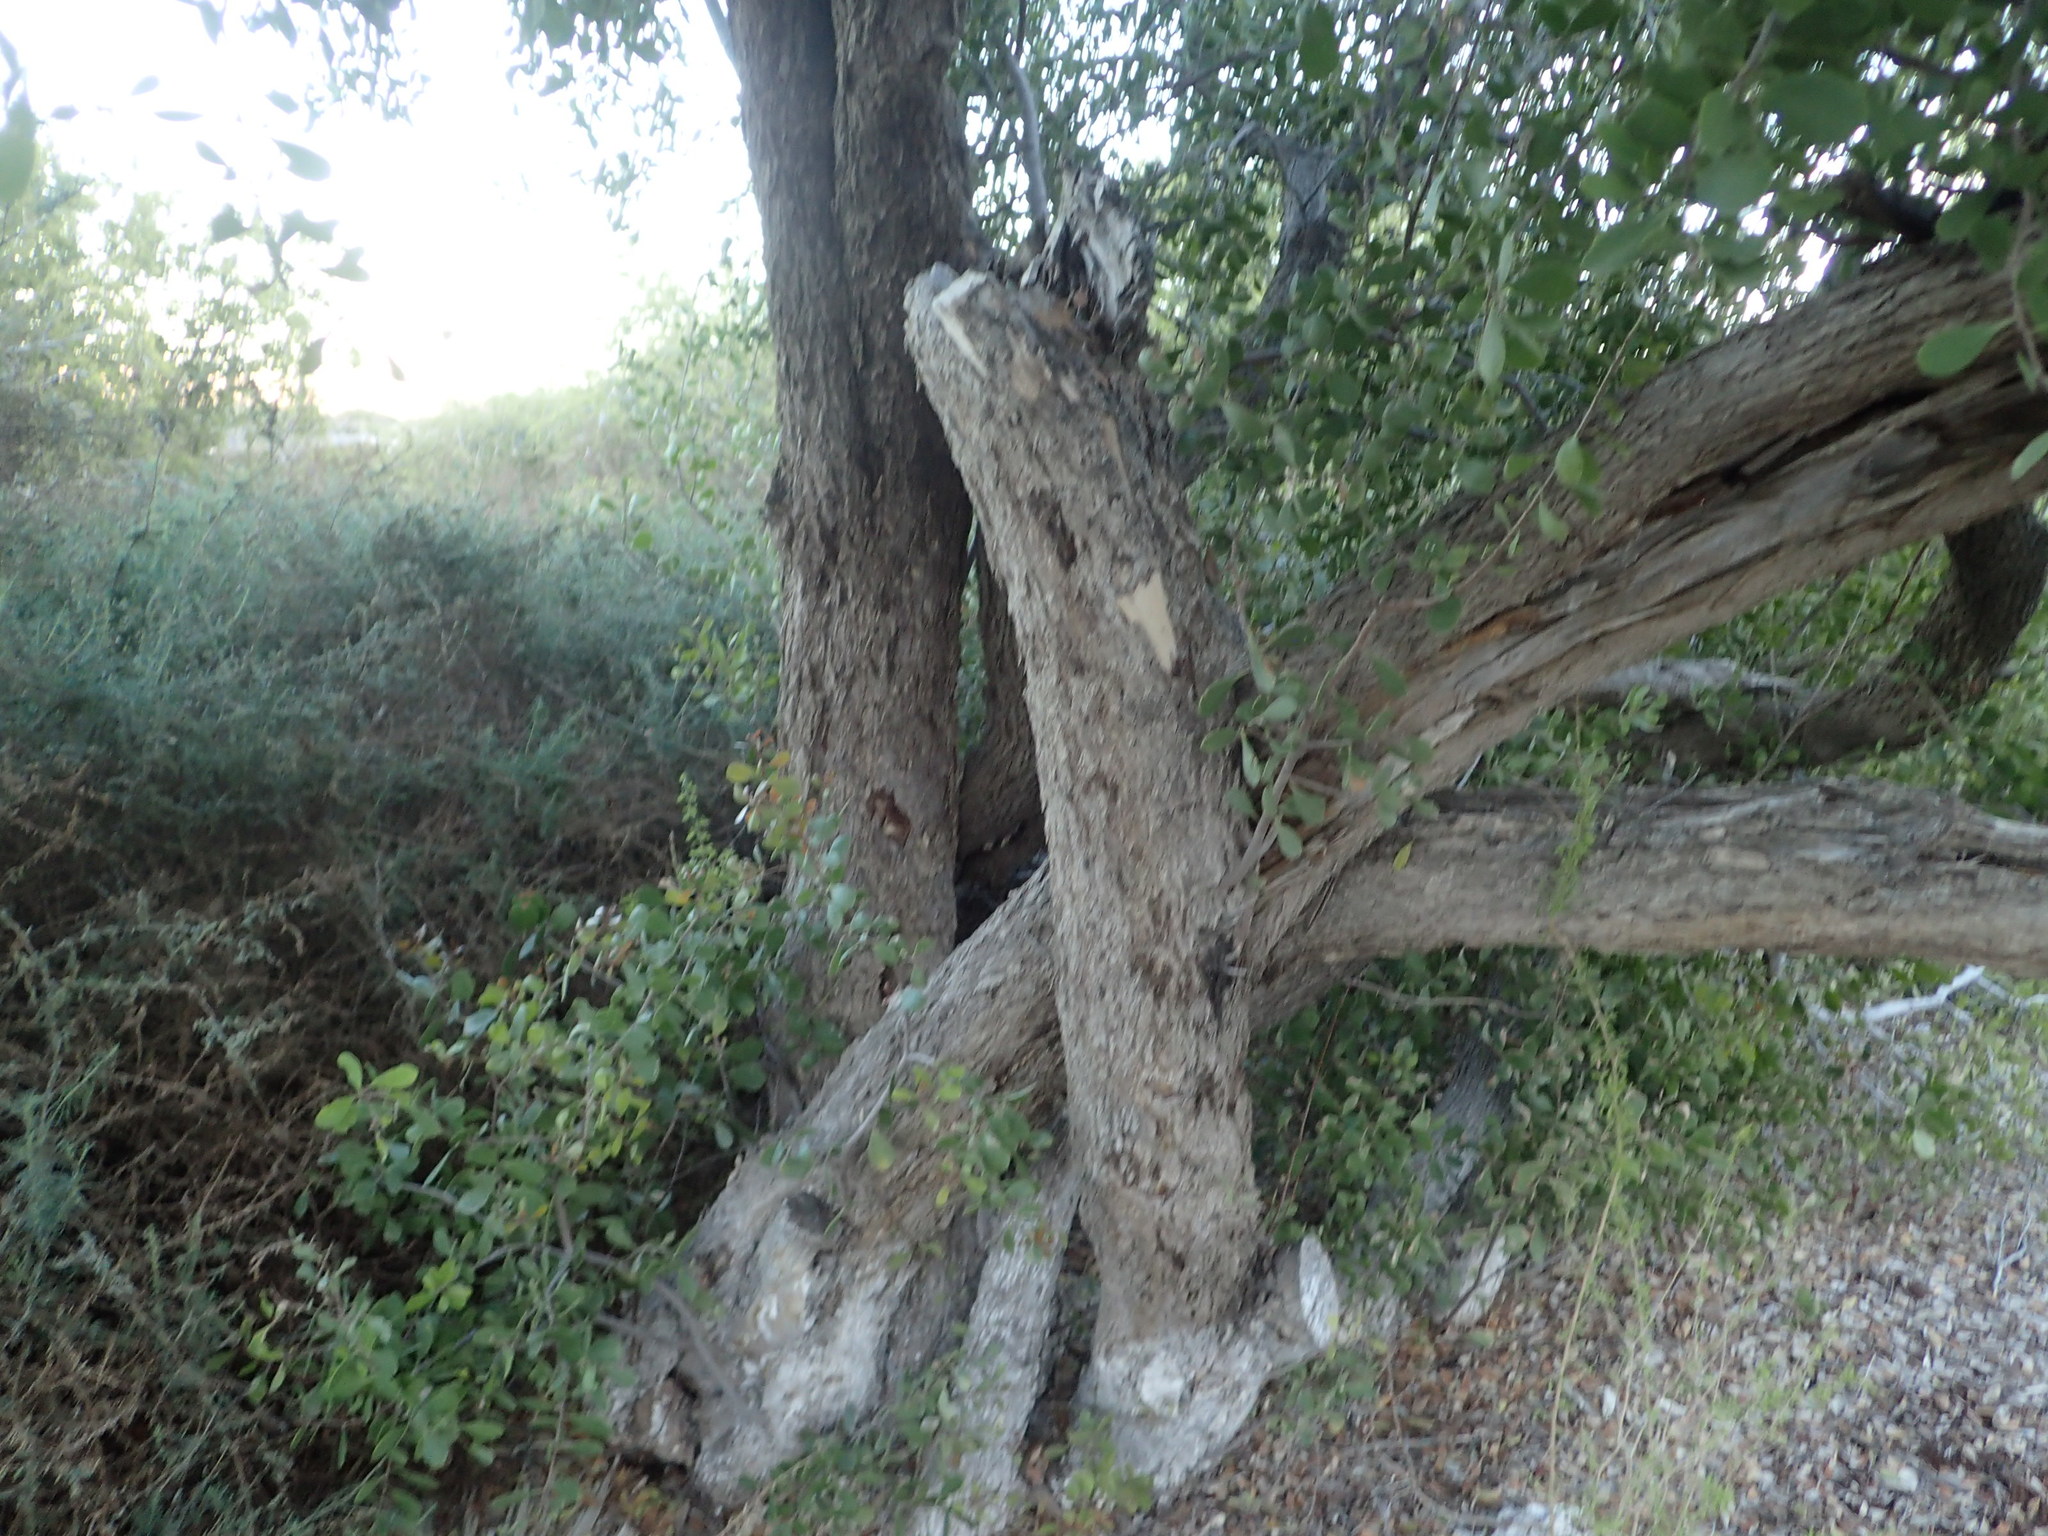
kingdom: Plantae
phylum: Tracheophyta
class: Magnoliopsida
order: Celastrales
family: Celastraceae
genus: Tricerma
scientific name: Tricerma phyllanthoides
